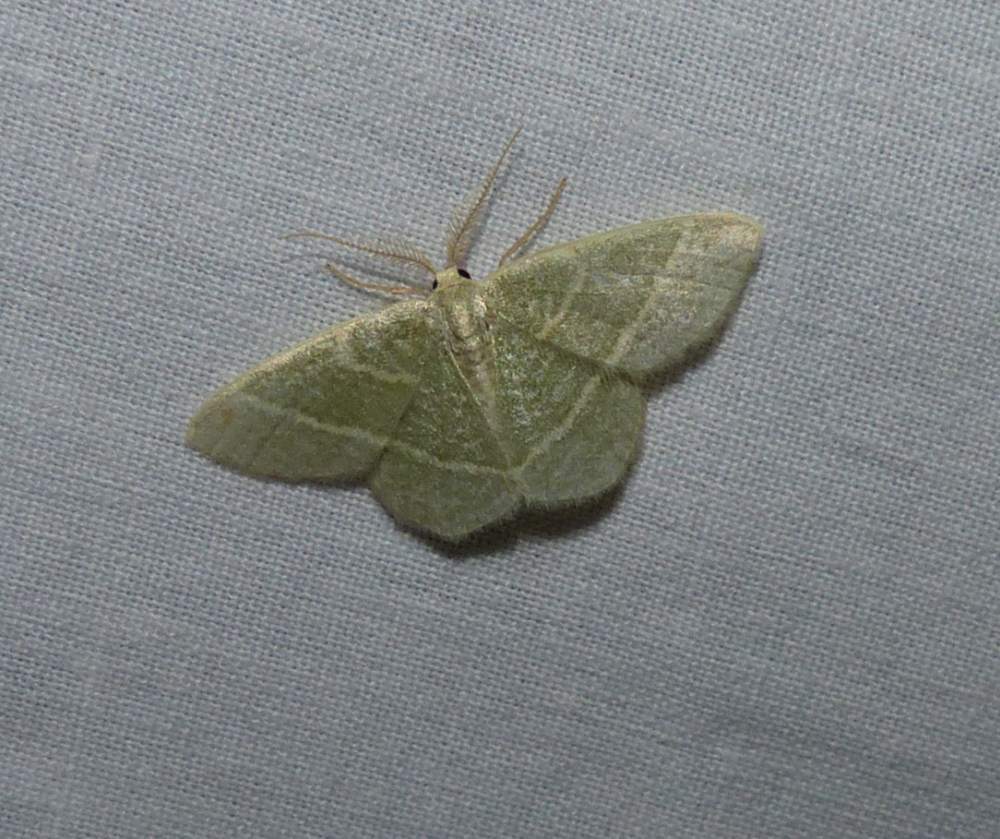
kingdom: Animalia
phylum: Arthropoda
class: Insecta
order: Lepidoptera
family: Geometridae
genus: Chlorochlamys
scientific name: Chlorochlamys chloroleucaria
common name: Blackberry looper
